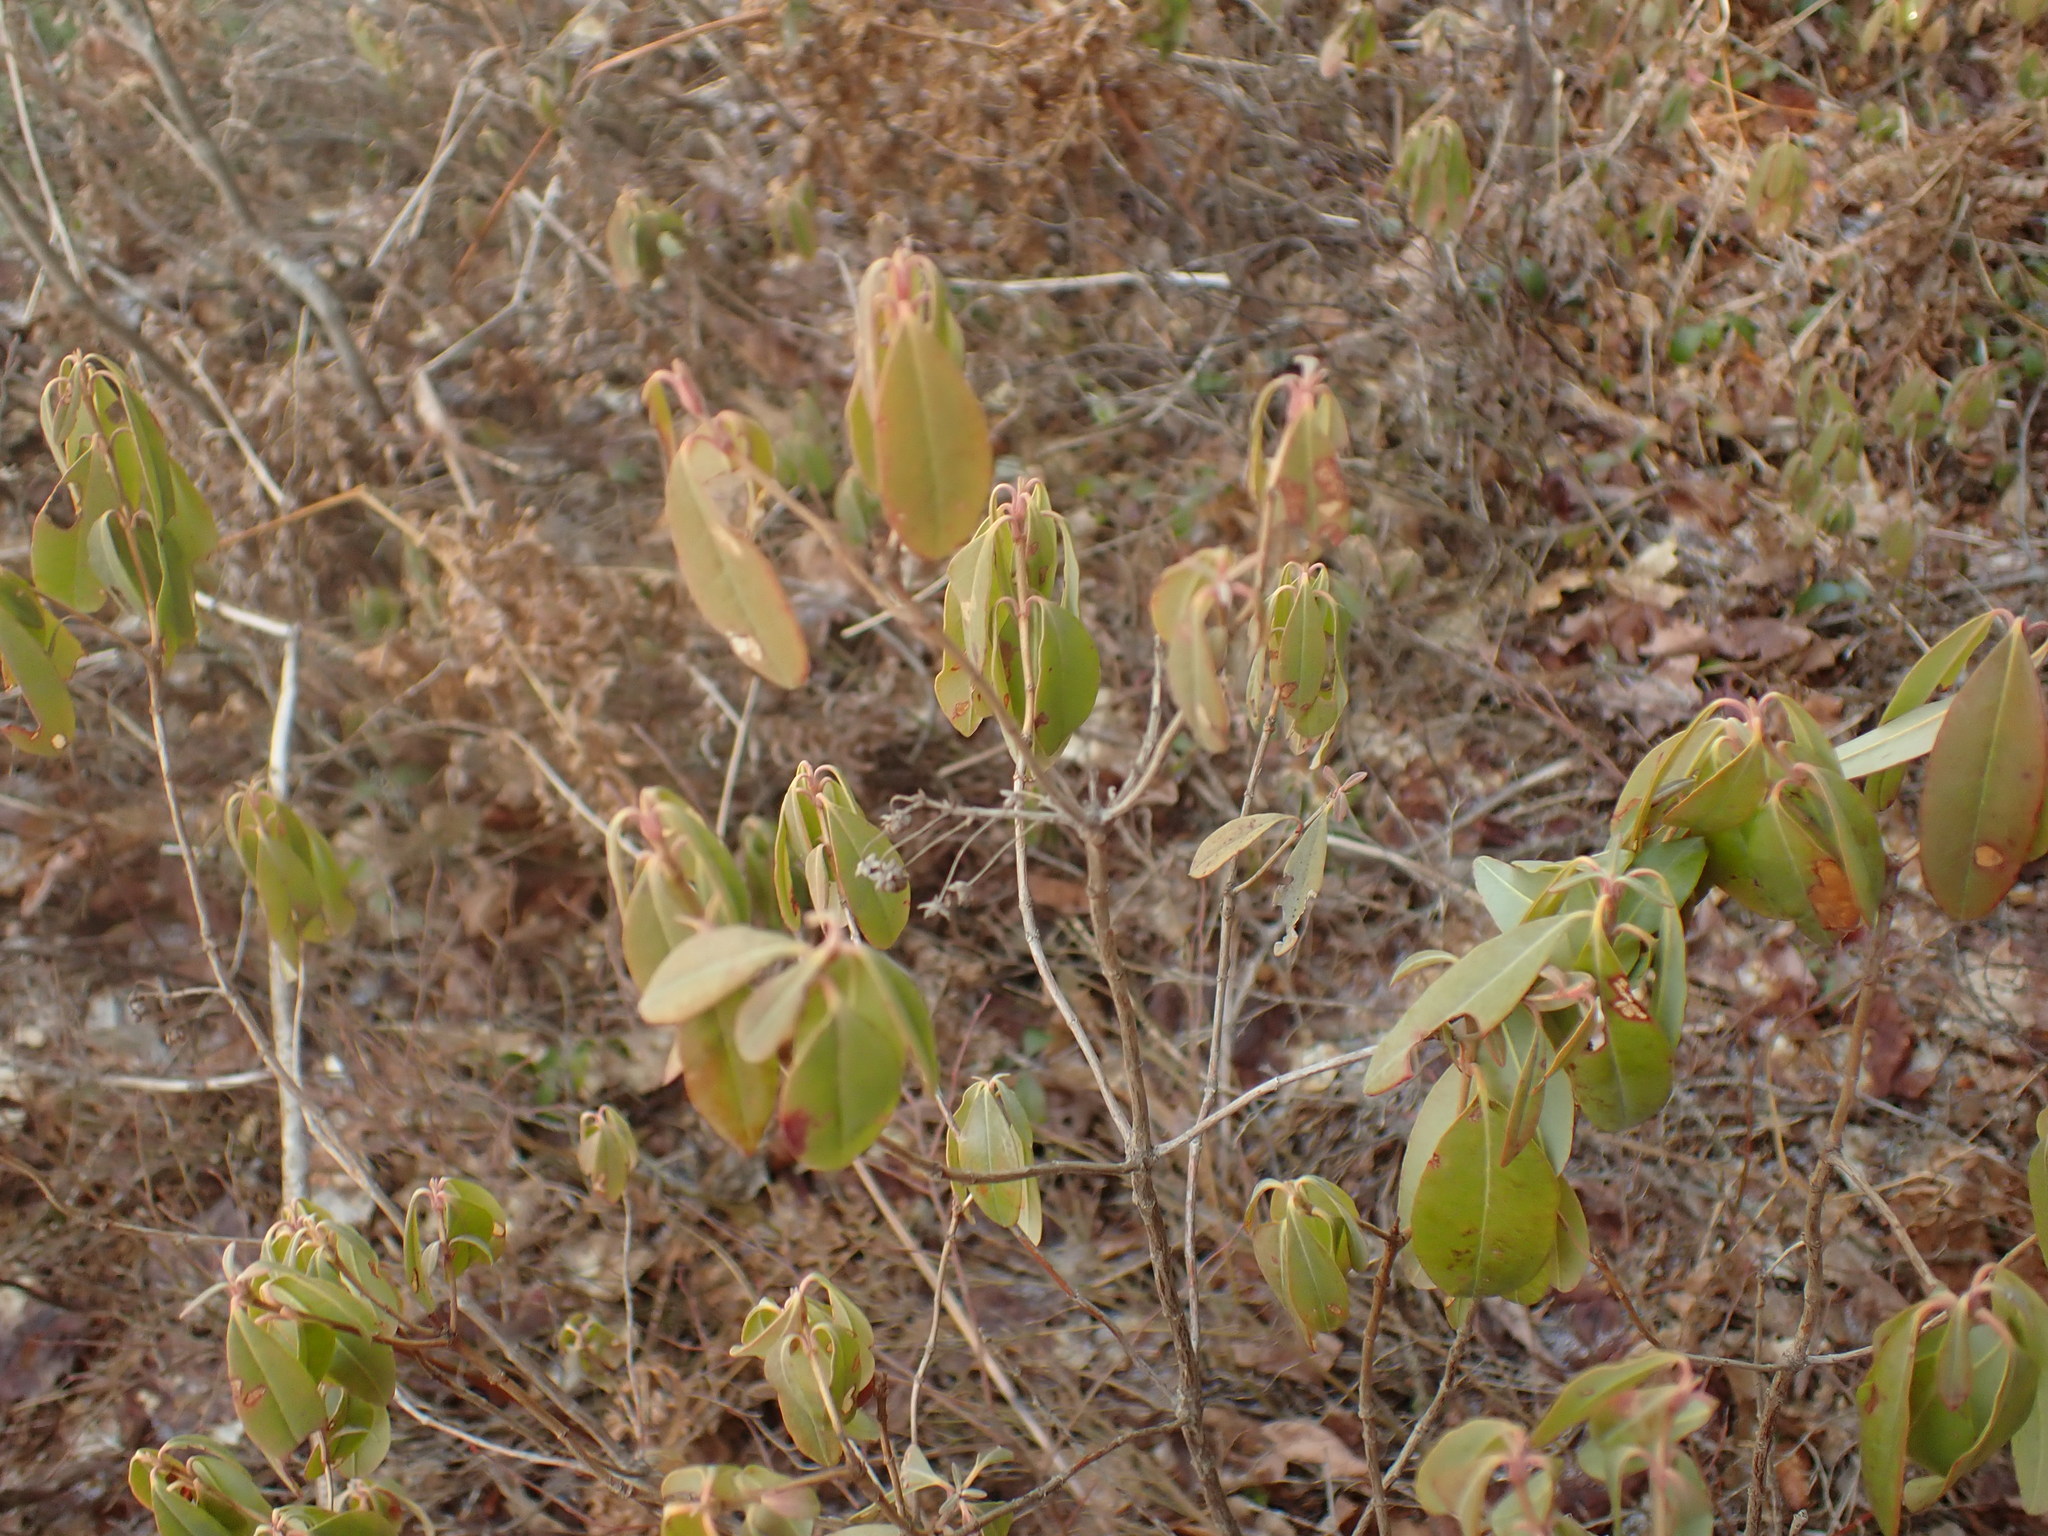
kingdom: Plantae
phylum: Tracheophyta
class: Magnoliopsida
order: Ericales
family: Ericaceae
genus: Kalmia
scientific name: Kalmia angustifolia
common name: Sheep-laurel
